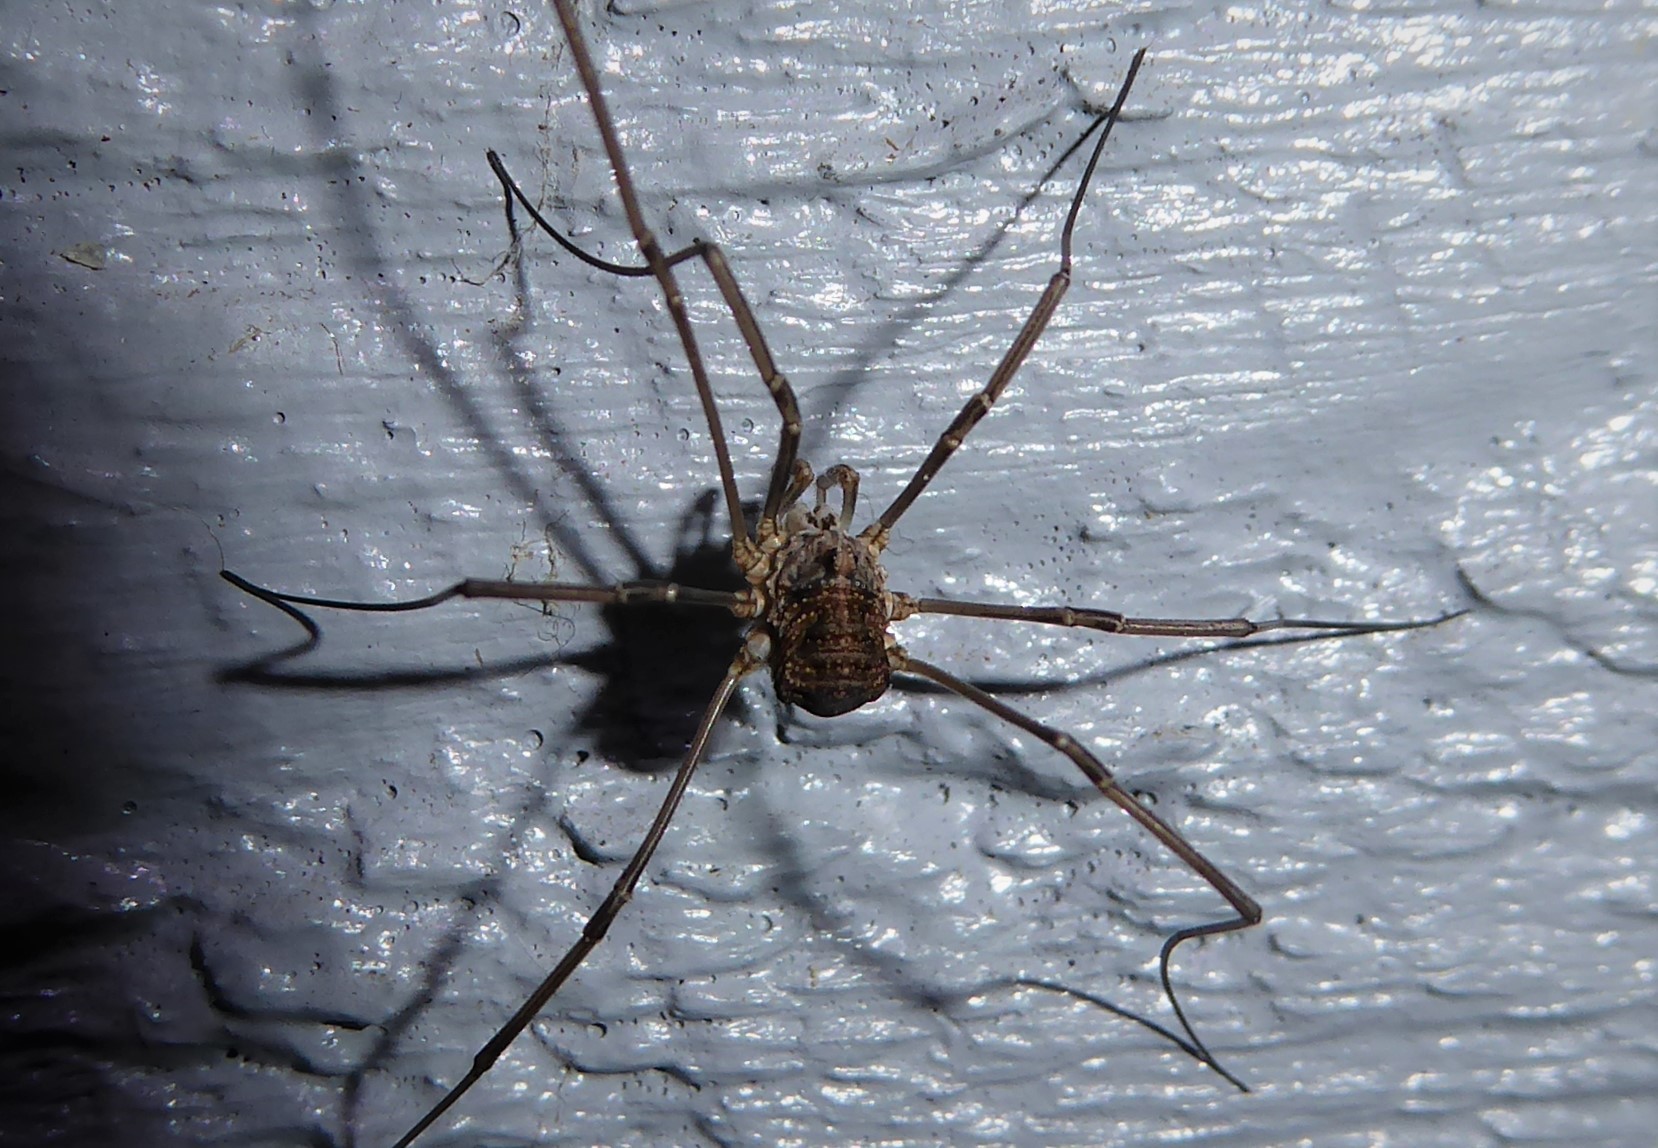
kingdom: Animalia
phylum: Arthropoda
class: Arachnida
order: Opiliones
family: Phalangiidae
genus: Phalangium
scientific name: Phalangium opilio
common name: Daddy longleg
